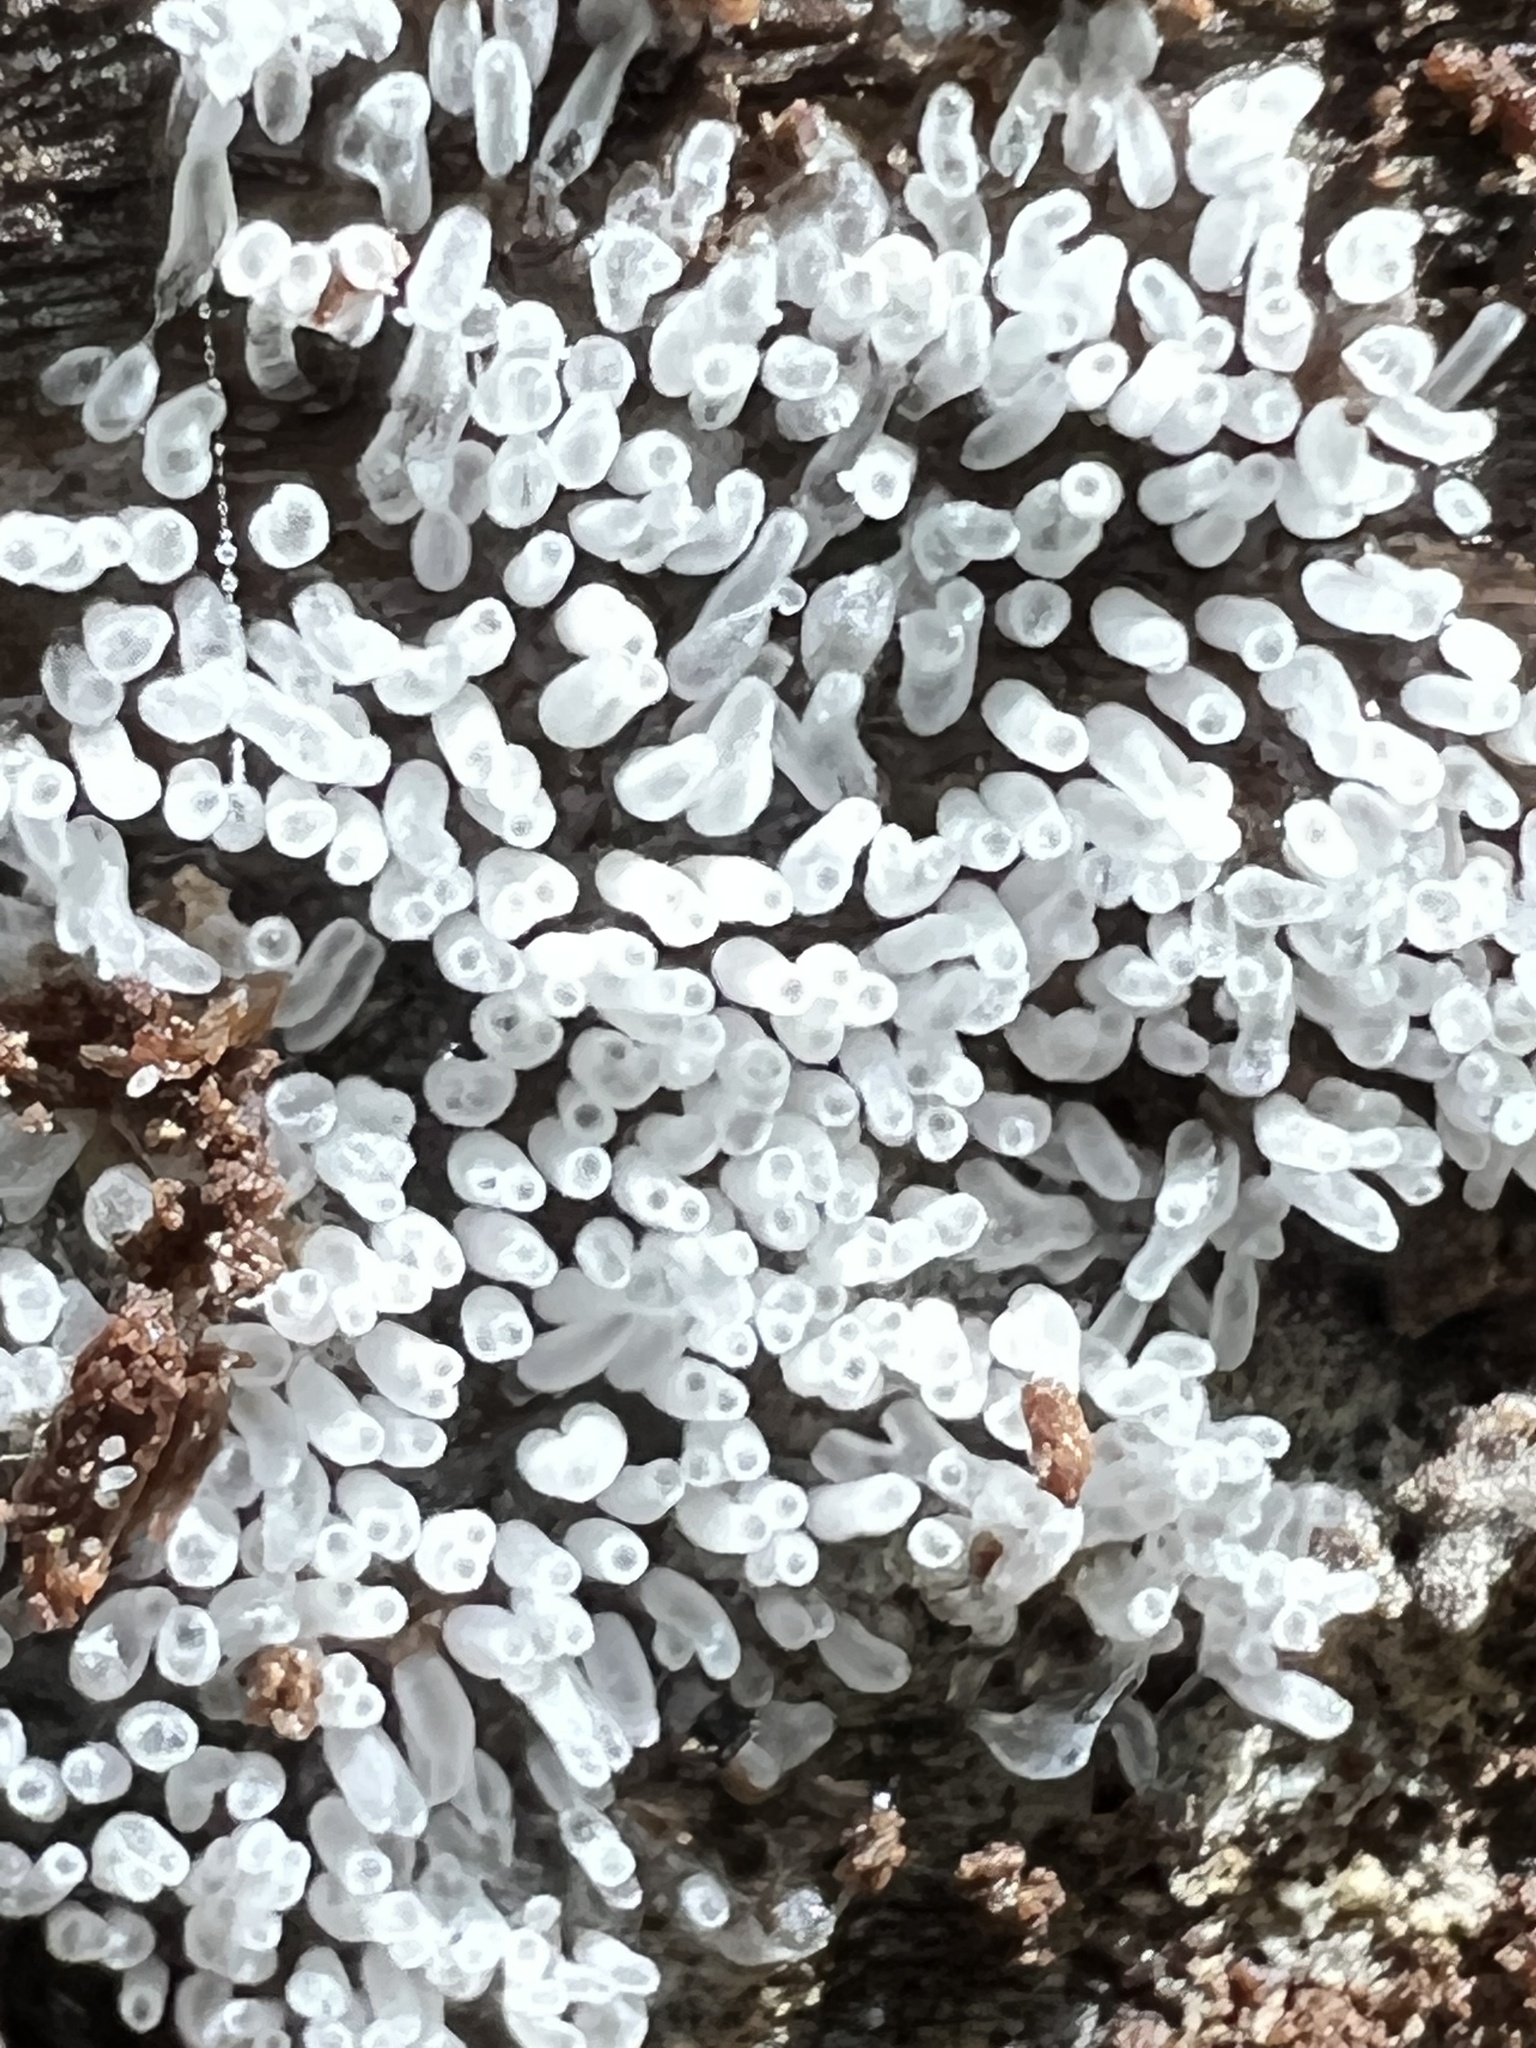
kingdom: Protozoa
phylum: Mycetozoa
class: Protosteliomycetes
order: Ceratiomyxales
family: Ceratiomyxaceae
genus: Ceratiomyxa
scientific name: Ceratiomyxa fruticulosa
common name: Honeycomb coral slime mold
